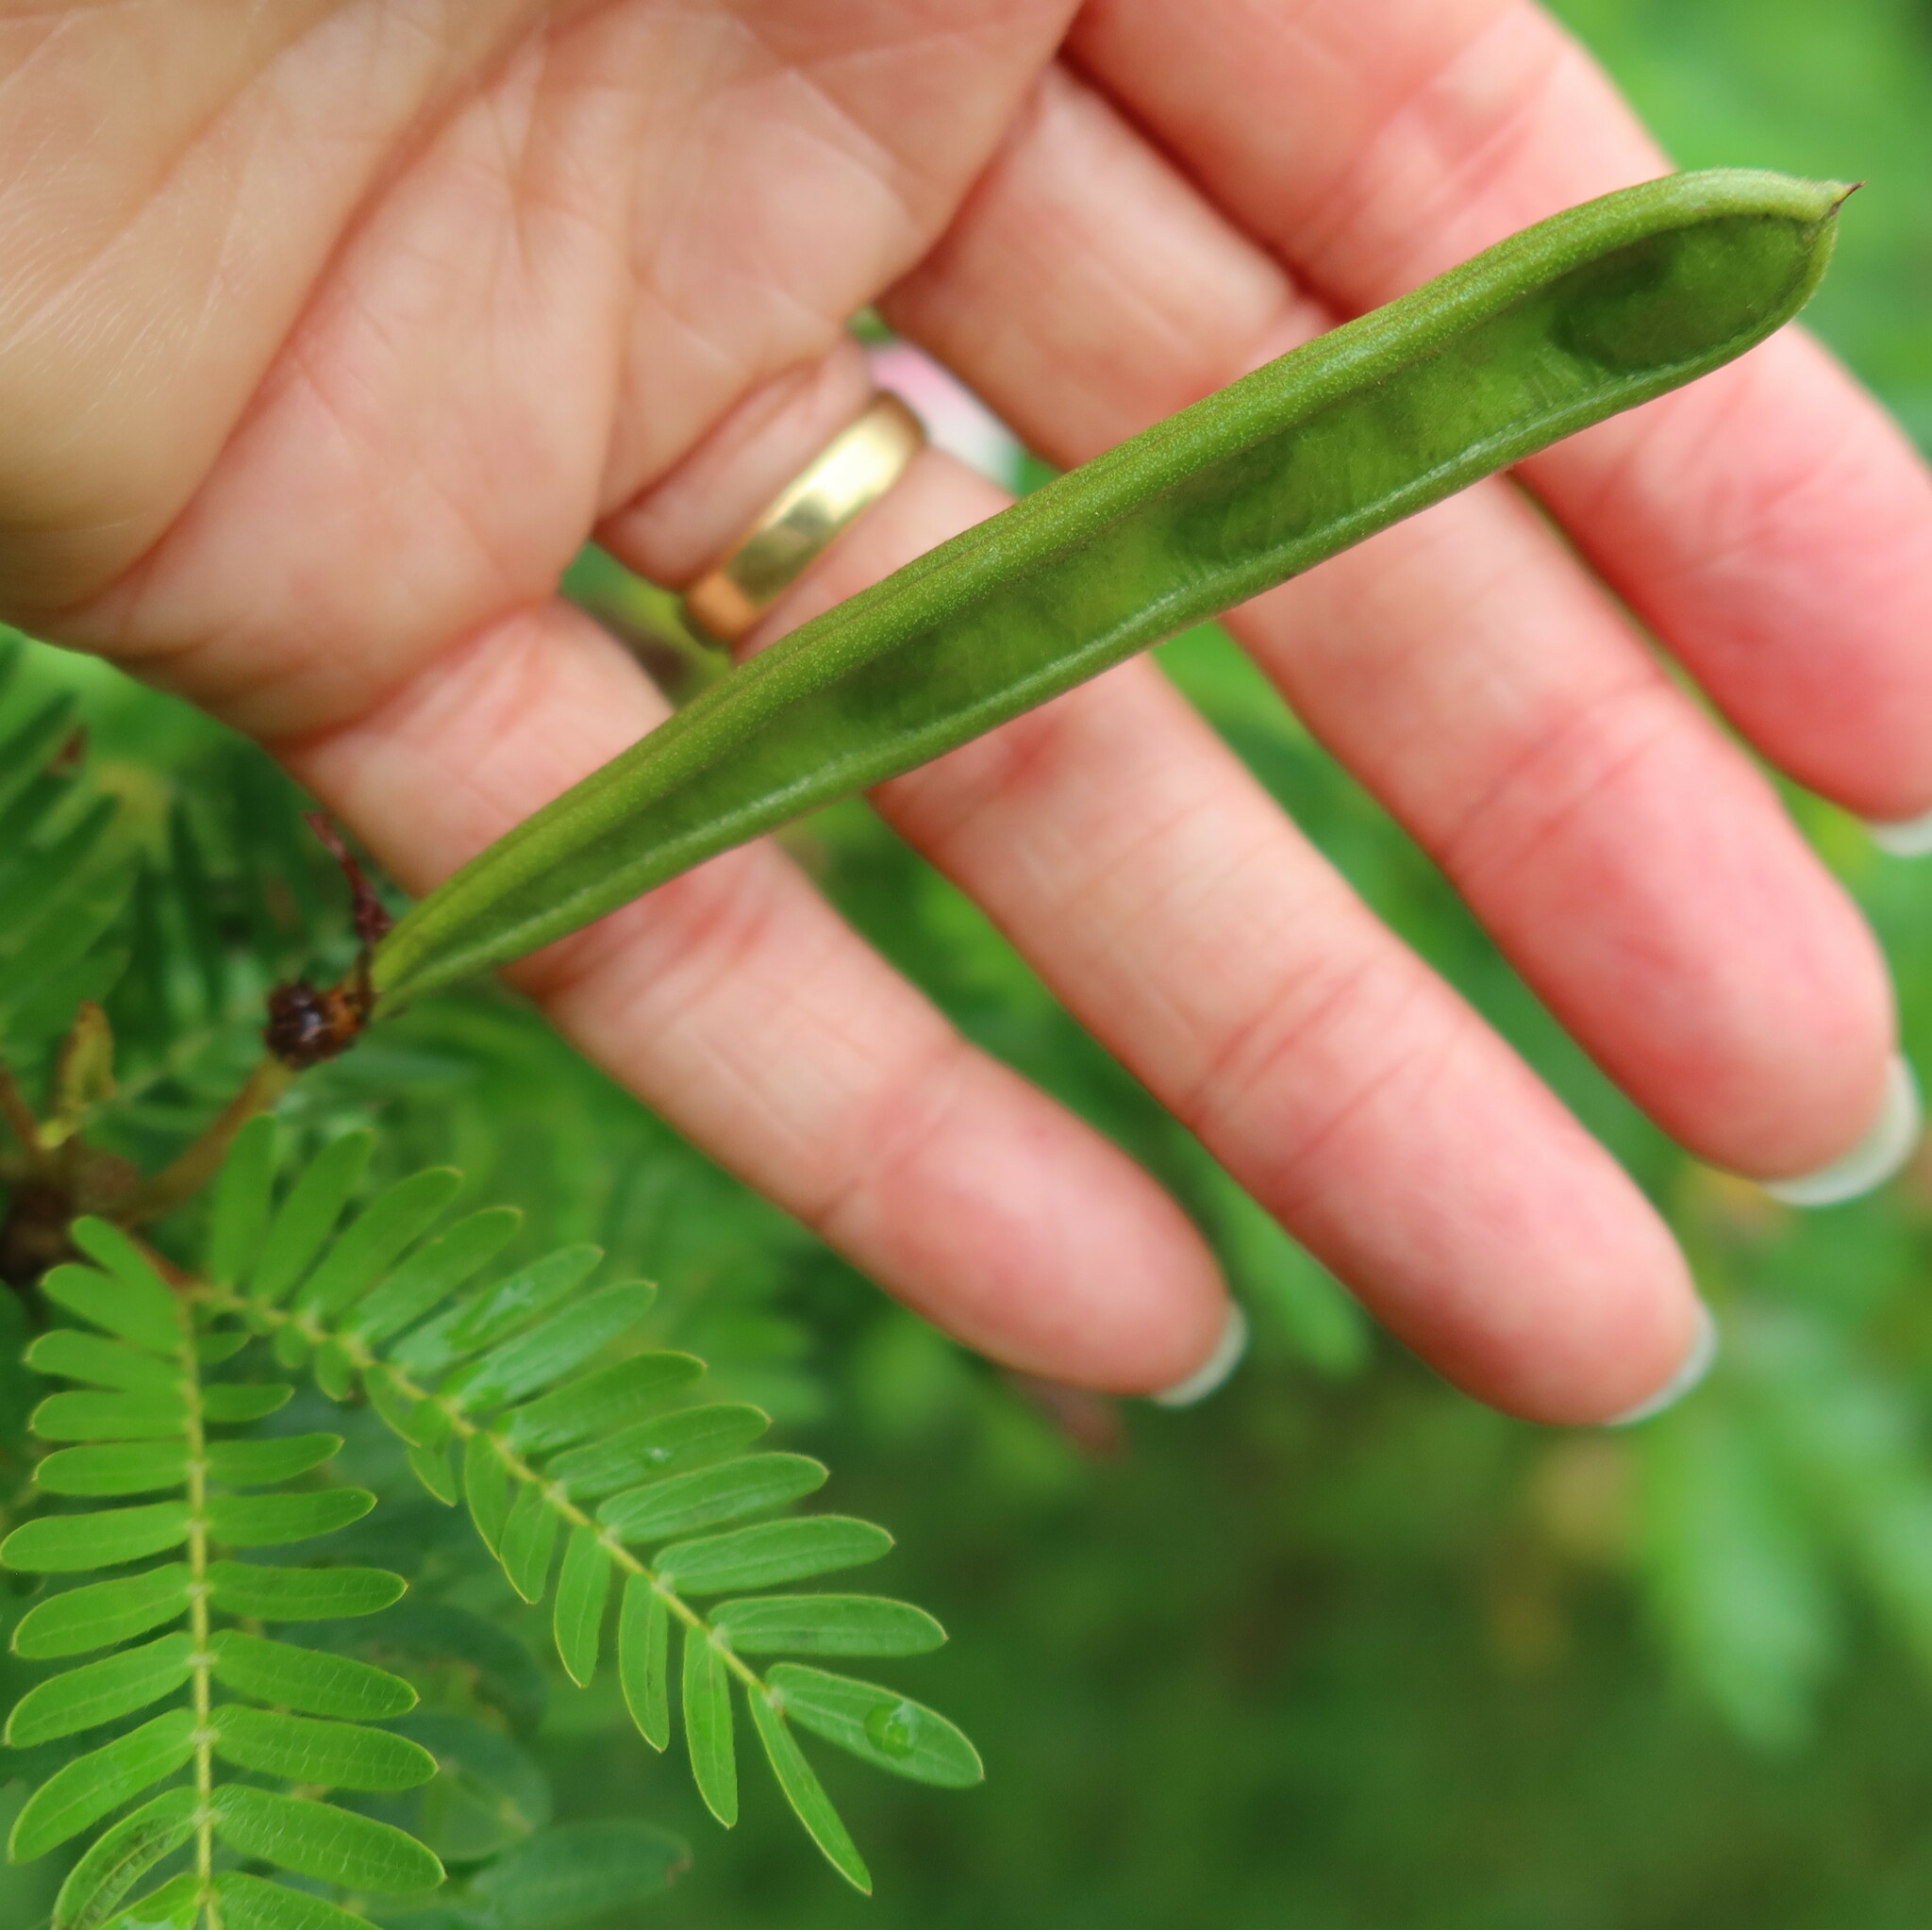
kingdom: Plantae
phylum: Tracheophyta
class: Magnoliopsida
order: Fabales
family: Fabaceae
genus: Calliandra
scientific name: Calliandra surinamensis
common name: Pink powder puff
